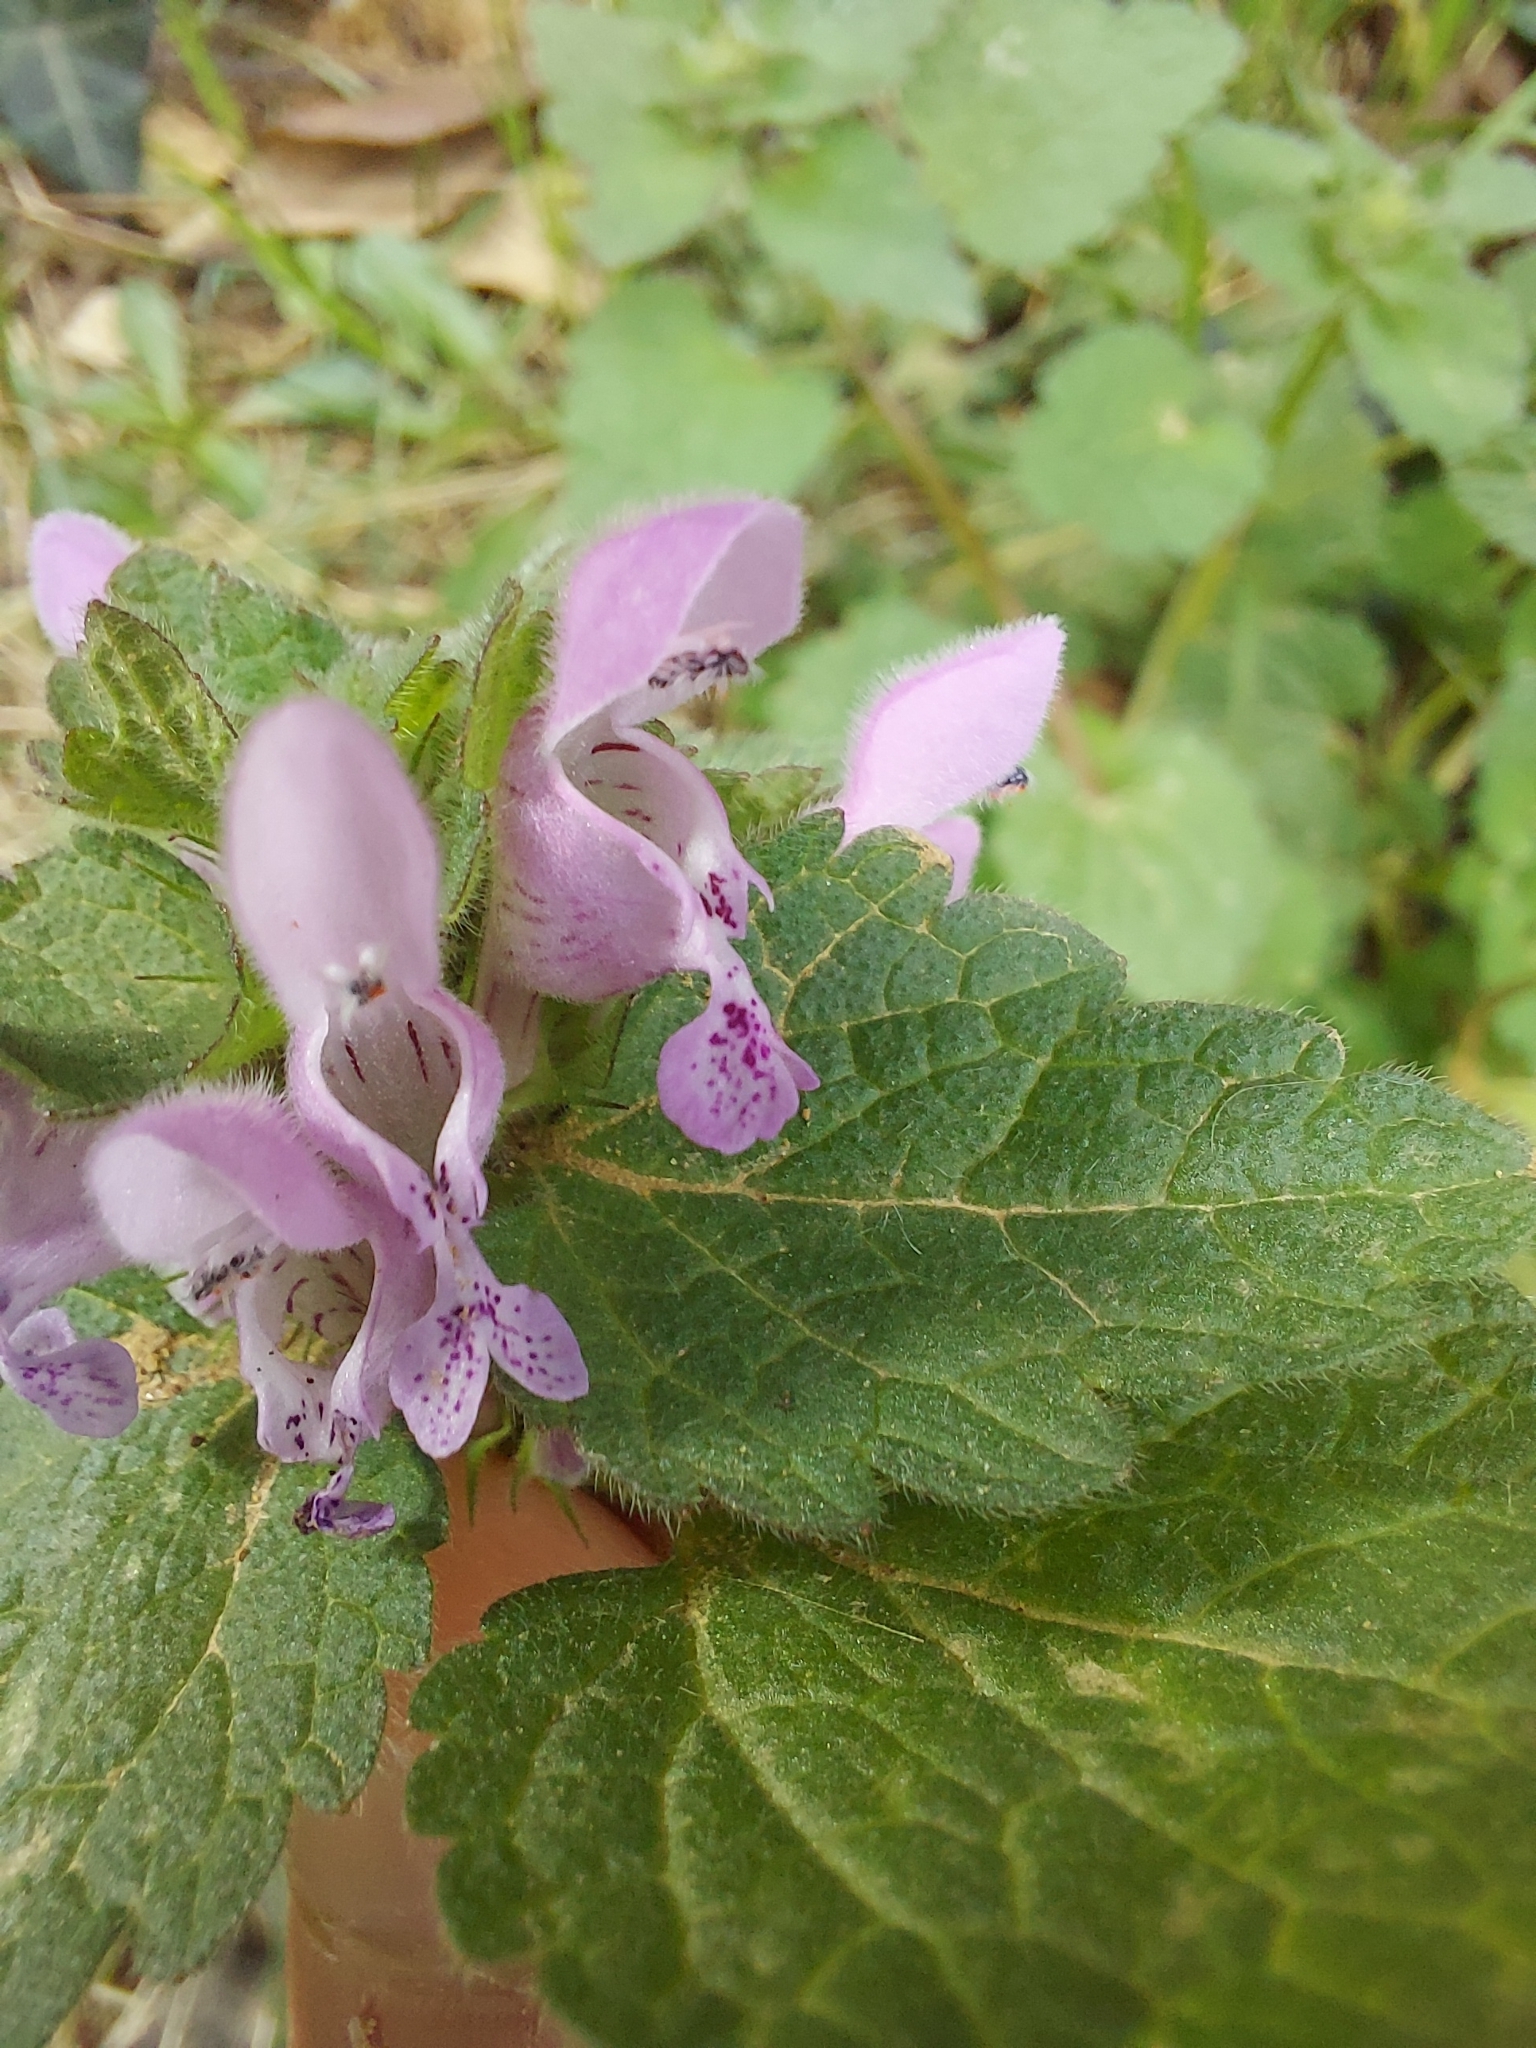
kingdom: Plantae
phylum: Tracheophyta
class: Magnoliopsida
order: Lamiales
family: Lamiaceae
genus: Lamium
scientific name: Lamium purpureum
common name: Red dead-nettle
